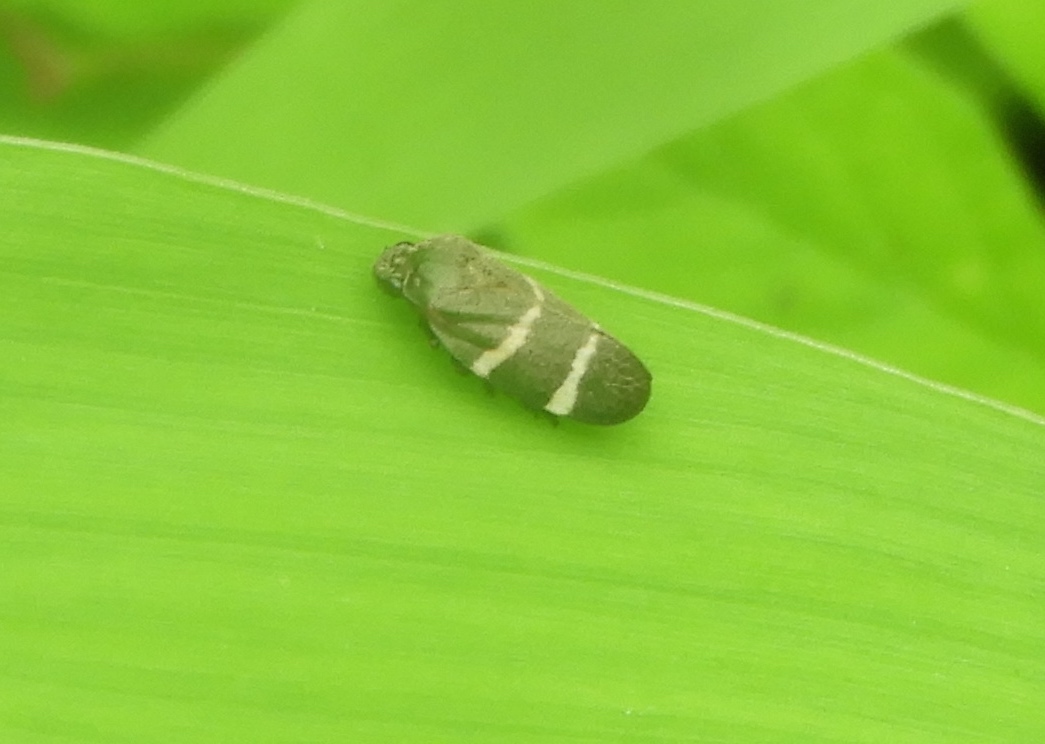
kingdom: Animalia
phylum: Arthropoda
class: Insecta
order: Hemiptera
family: Cercopidae
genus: Aeneolamia
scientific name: Aeneolamia albofasciata
